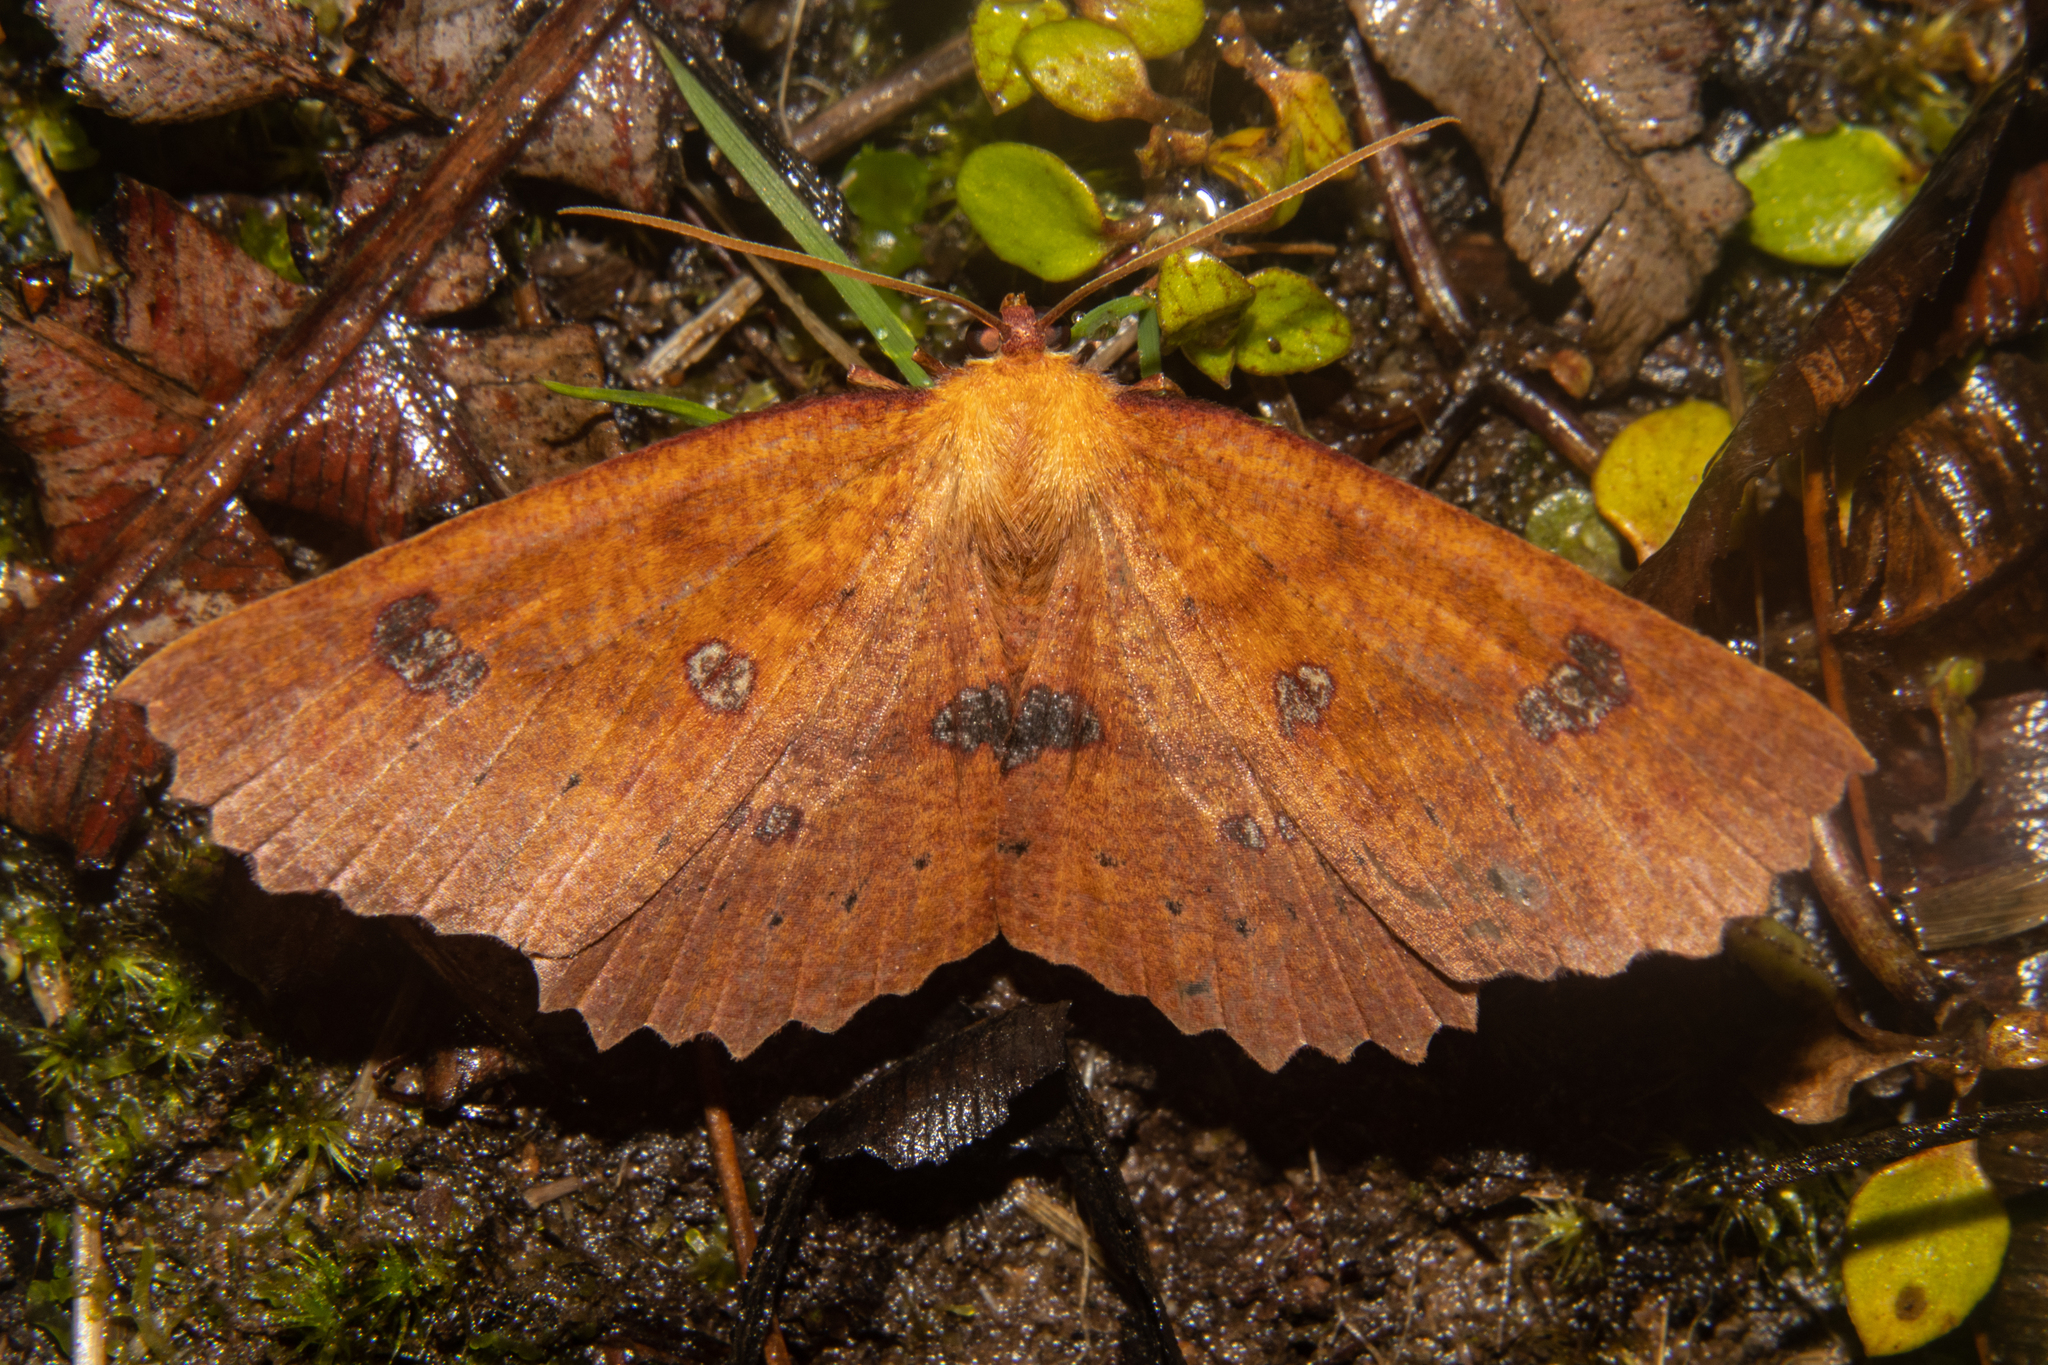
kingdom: Animalia
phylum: Arthropoda
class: Insecta
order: Lepidoptera
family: Geometridae
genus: Xyridacma
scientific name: Xyridacma alectoraria
